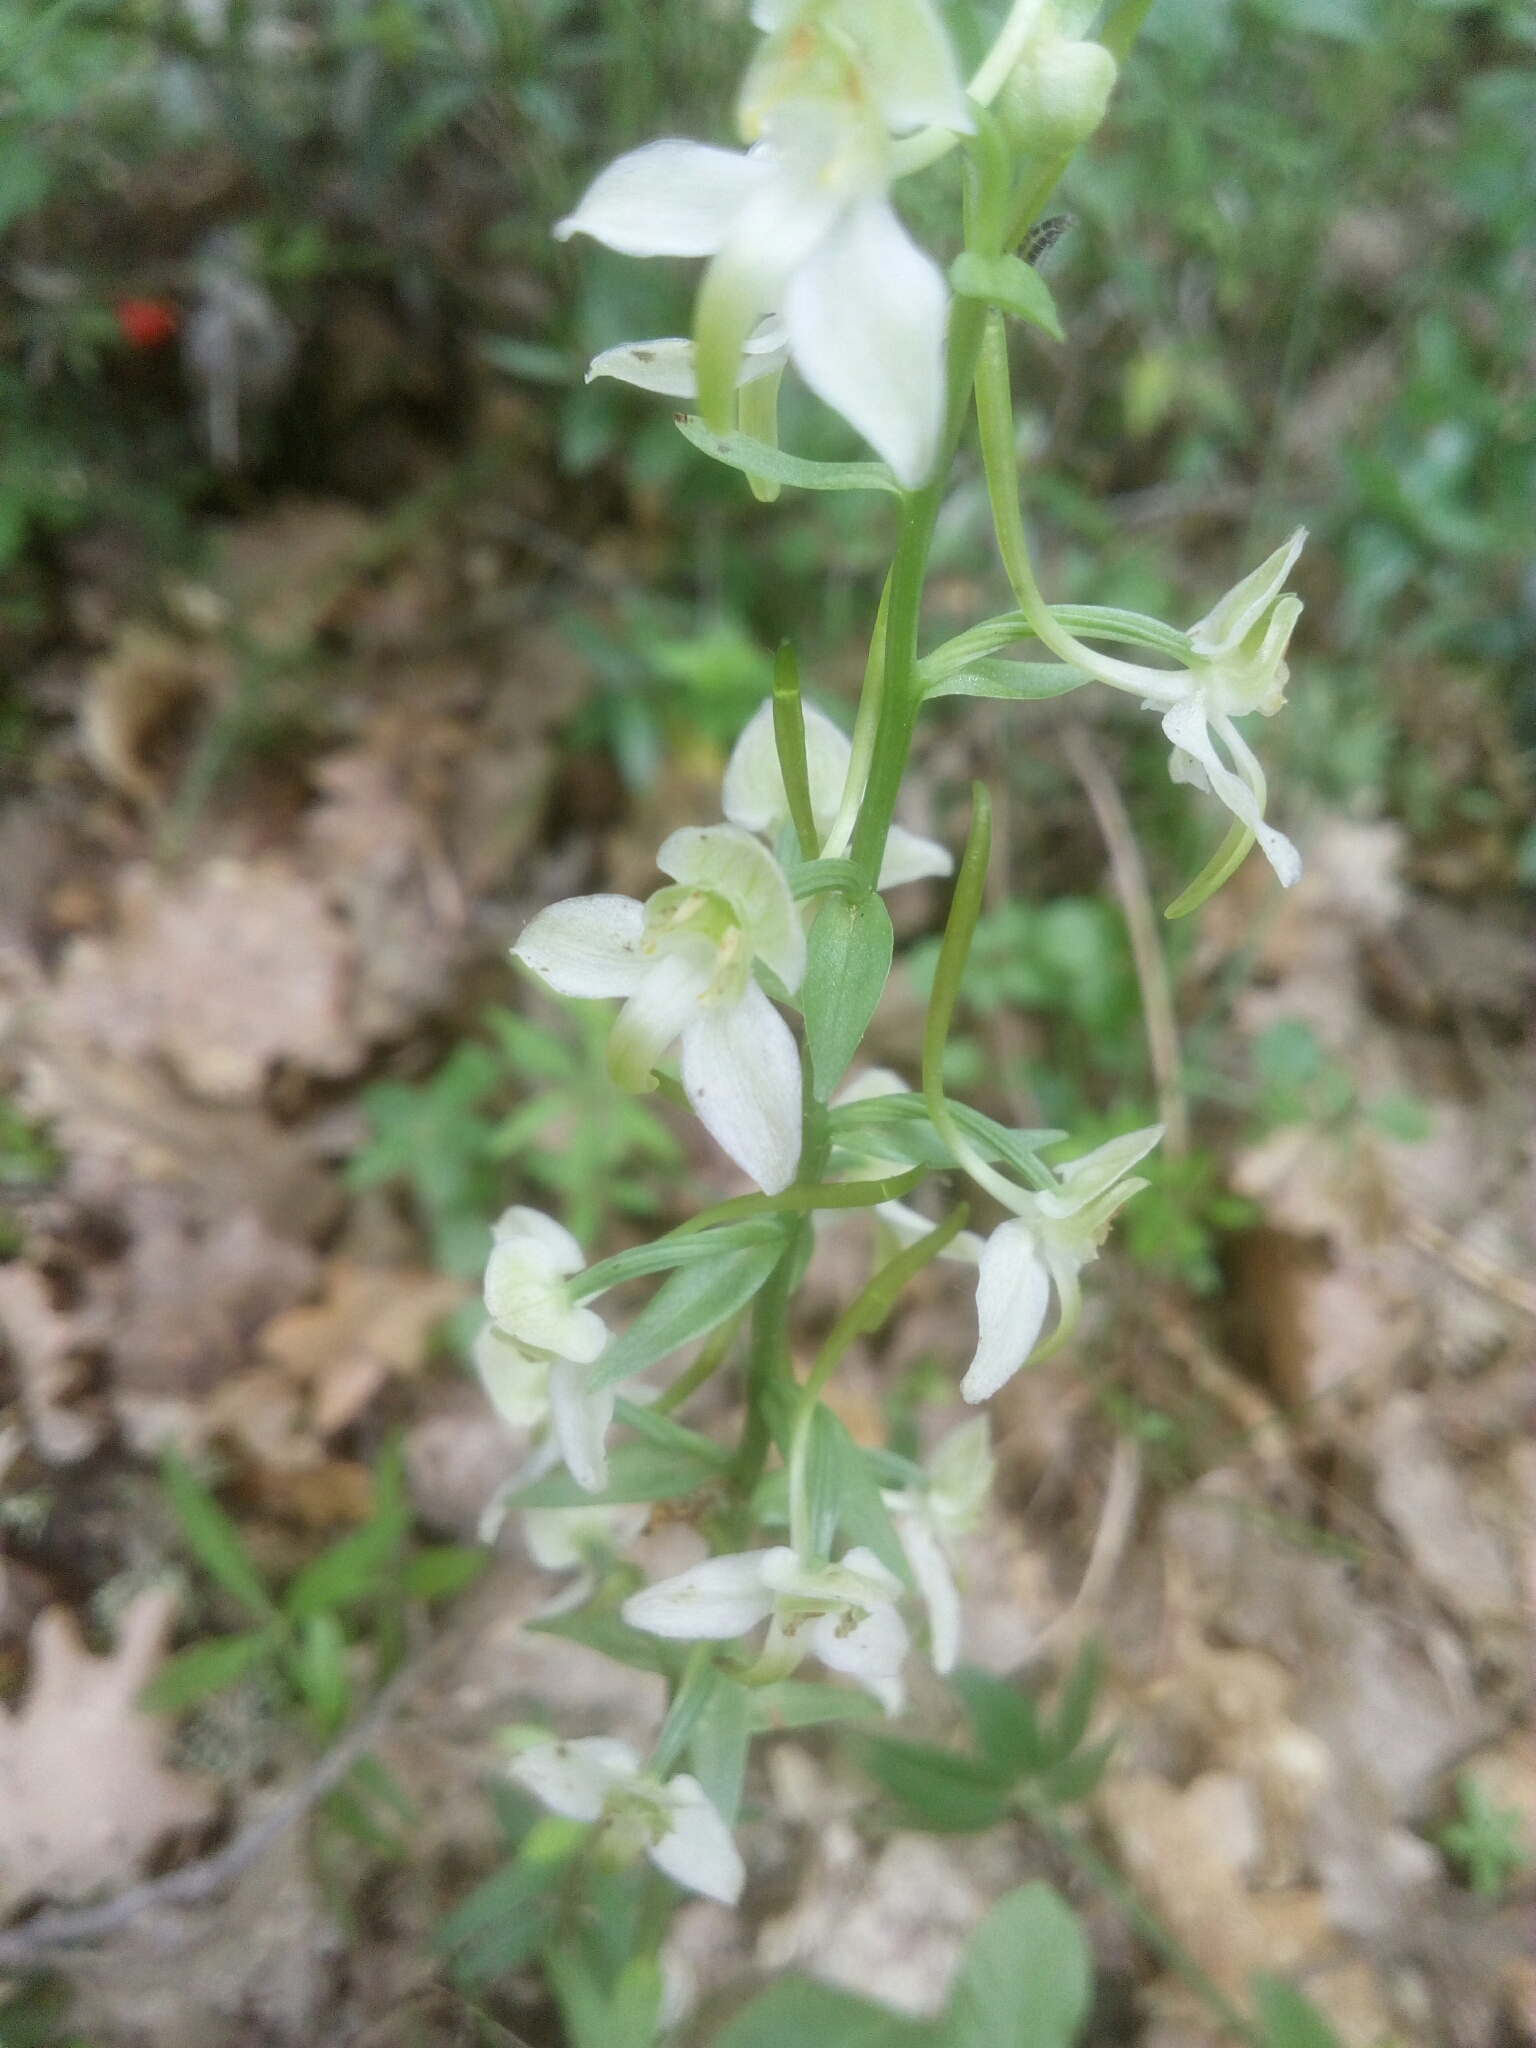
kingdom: Plantae
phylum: Tracheophyta
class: Liliopsida
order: Asparagales
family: Orchidaceae
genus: Platanthera
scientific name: Platanthera chlorantha
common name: Greater butterfly-orchid
